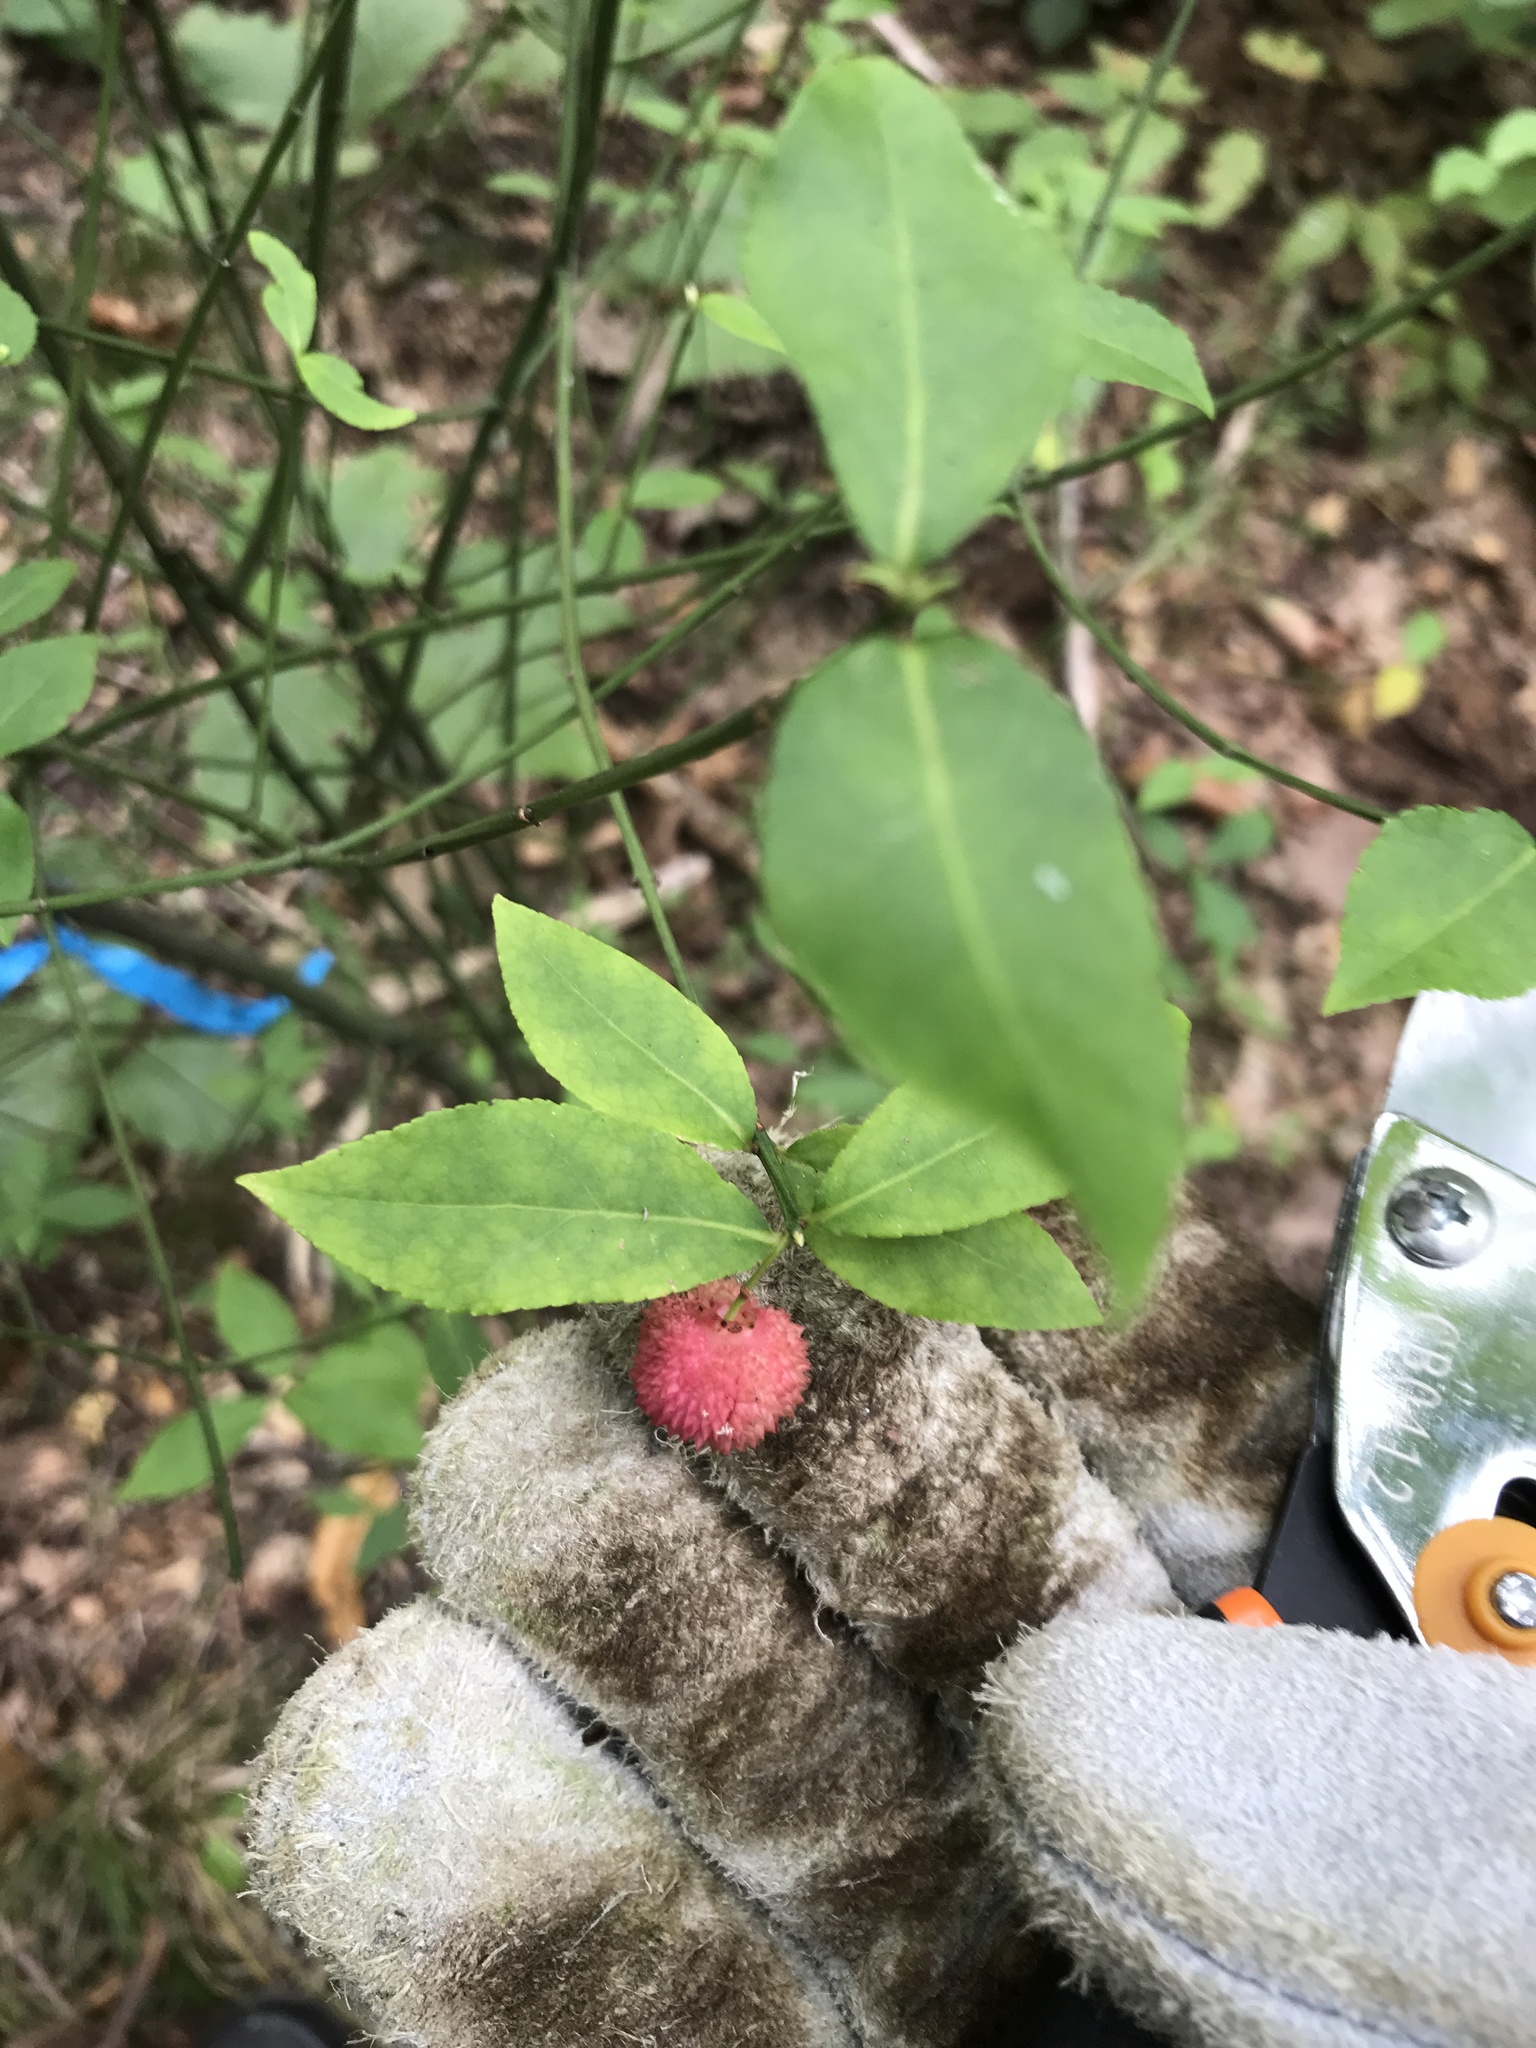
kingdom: Plantae
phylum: Tracheophyta
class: Magnoliopsida
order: Celastrales
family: Celastraceae
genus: Euonymus
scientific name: Euonymus americanus
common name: Bursting-heart
